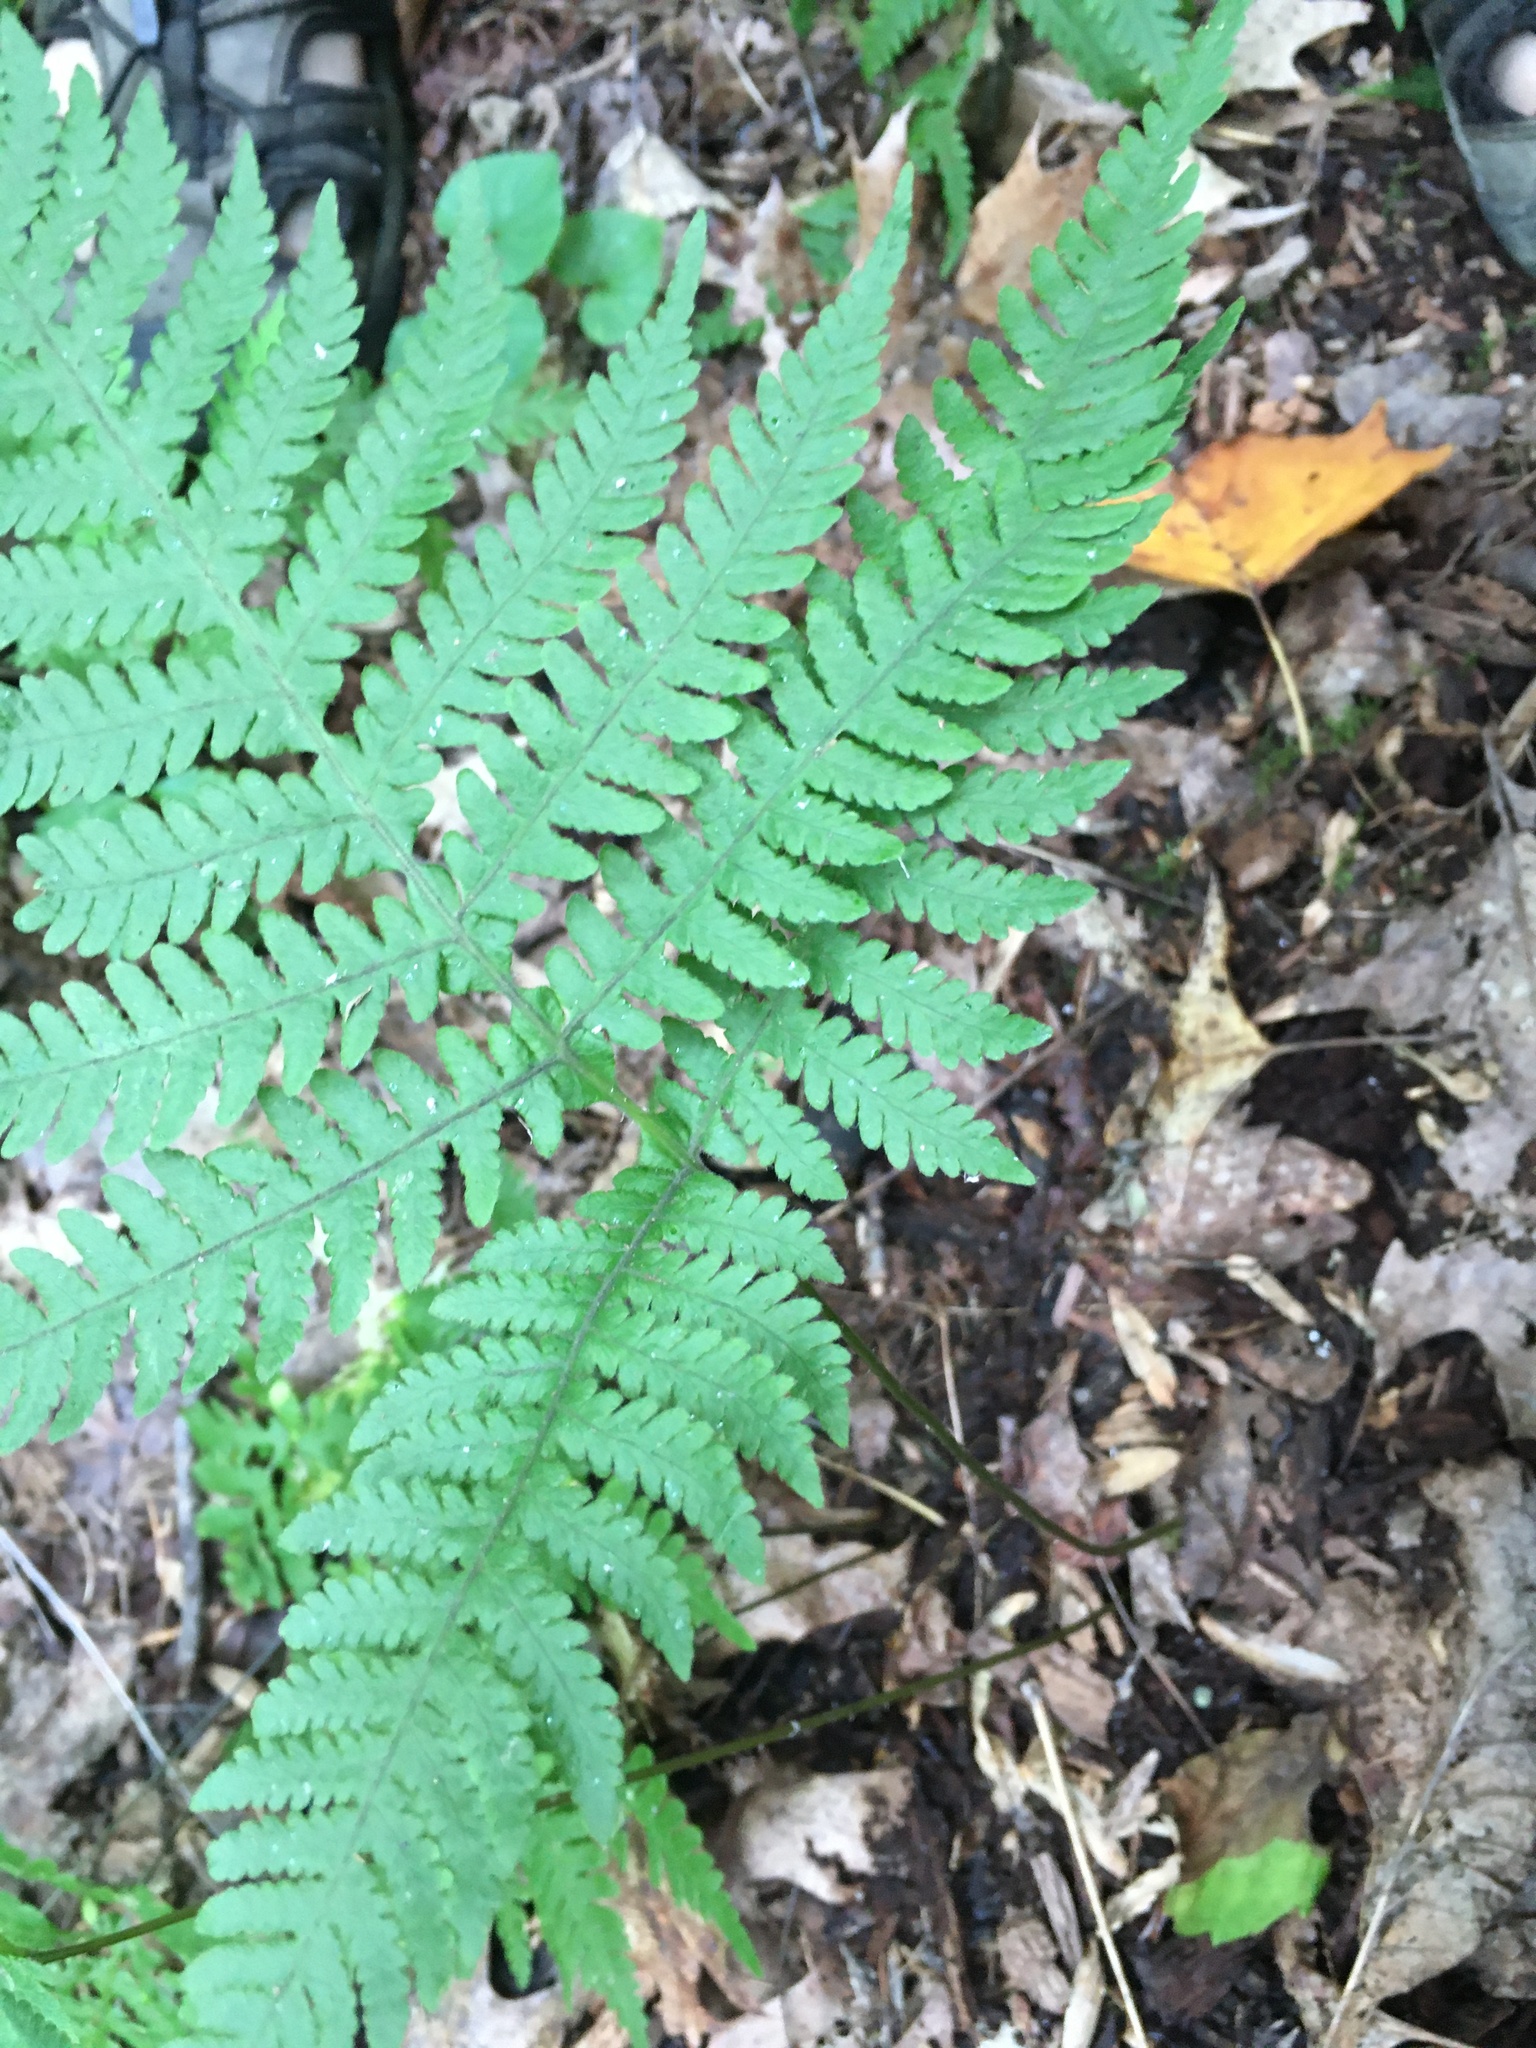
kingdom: Plantae
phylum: Tracheophyta
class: Polypodiopsida
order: Polypodiales
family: Thelypteridaceae
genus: Phegopteris
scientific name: Phegopteris hexagonoptera
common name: Broad beech fern
